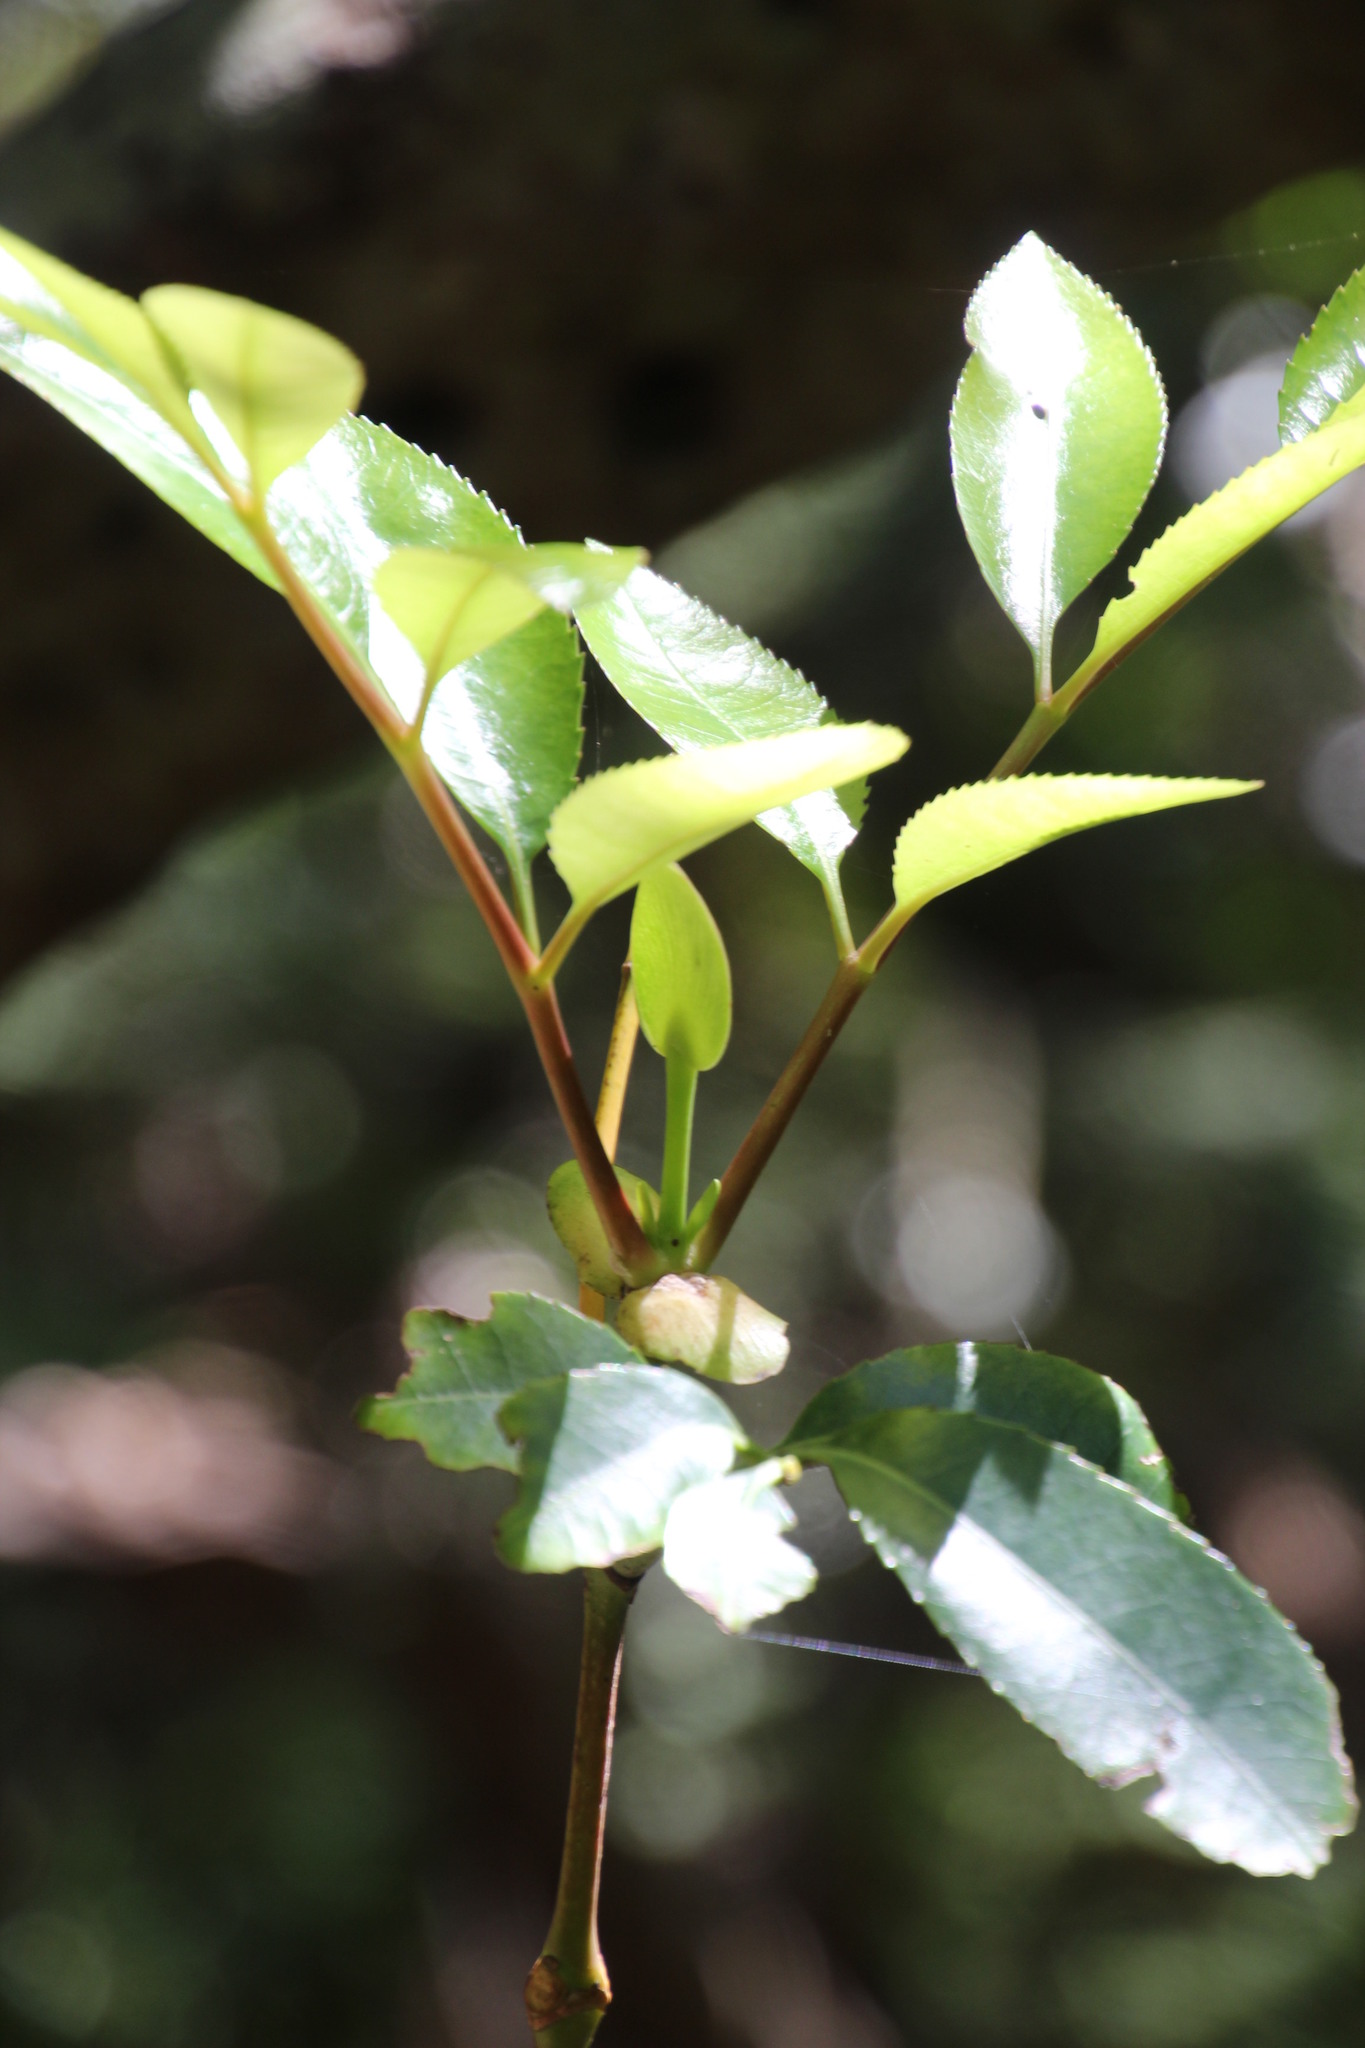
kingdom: Plantae
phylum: Tracheophyta
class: Magnoliopsida
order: Oxalidales
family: Cunoniaceae
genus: Cunonia
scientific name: Cunonia capensis
